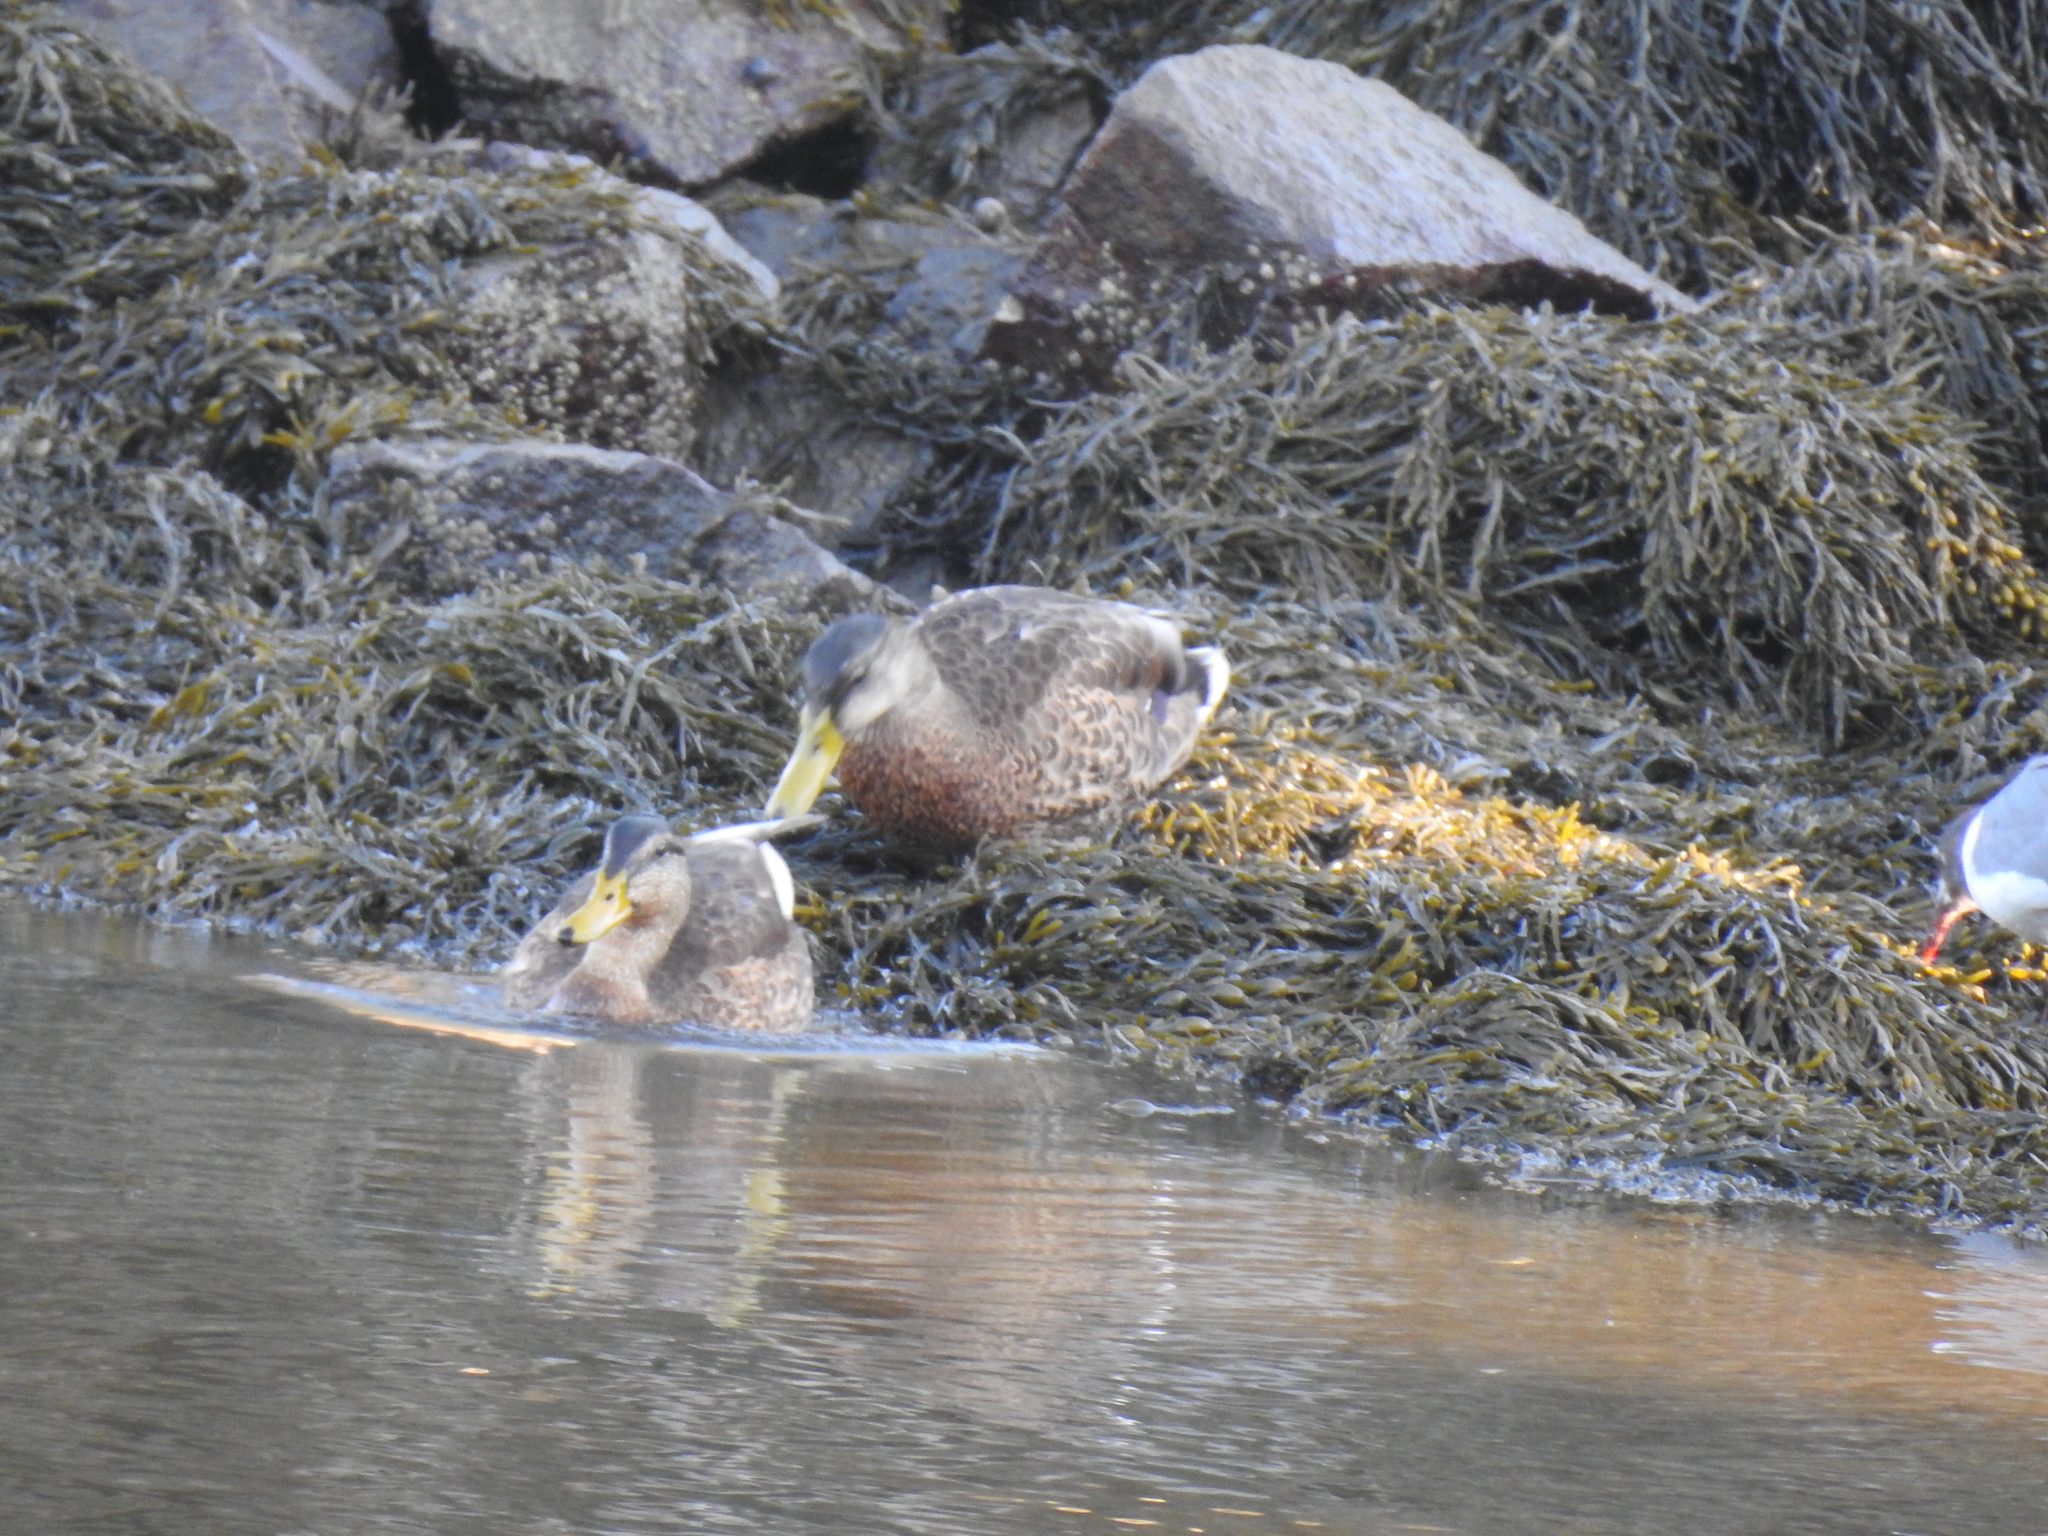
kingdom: Animalia
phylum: Chordata
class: Aves
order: Anseriformes
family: Anatidae
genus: Anas
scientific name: Anas platyrhynchos
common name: Mallard
